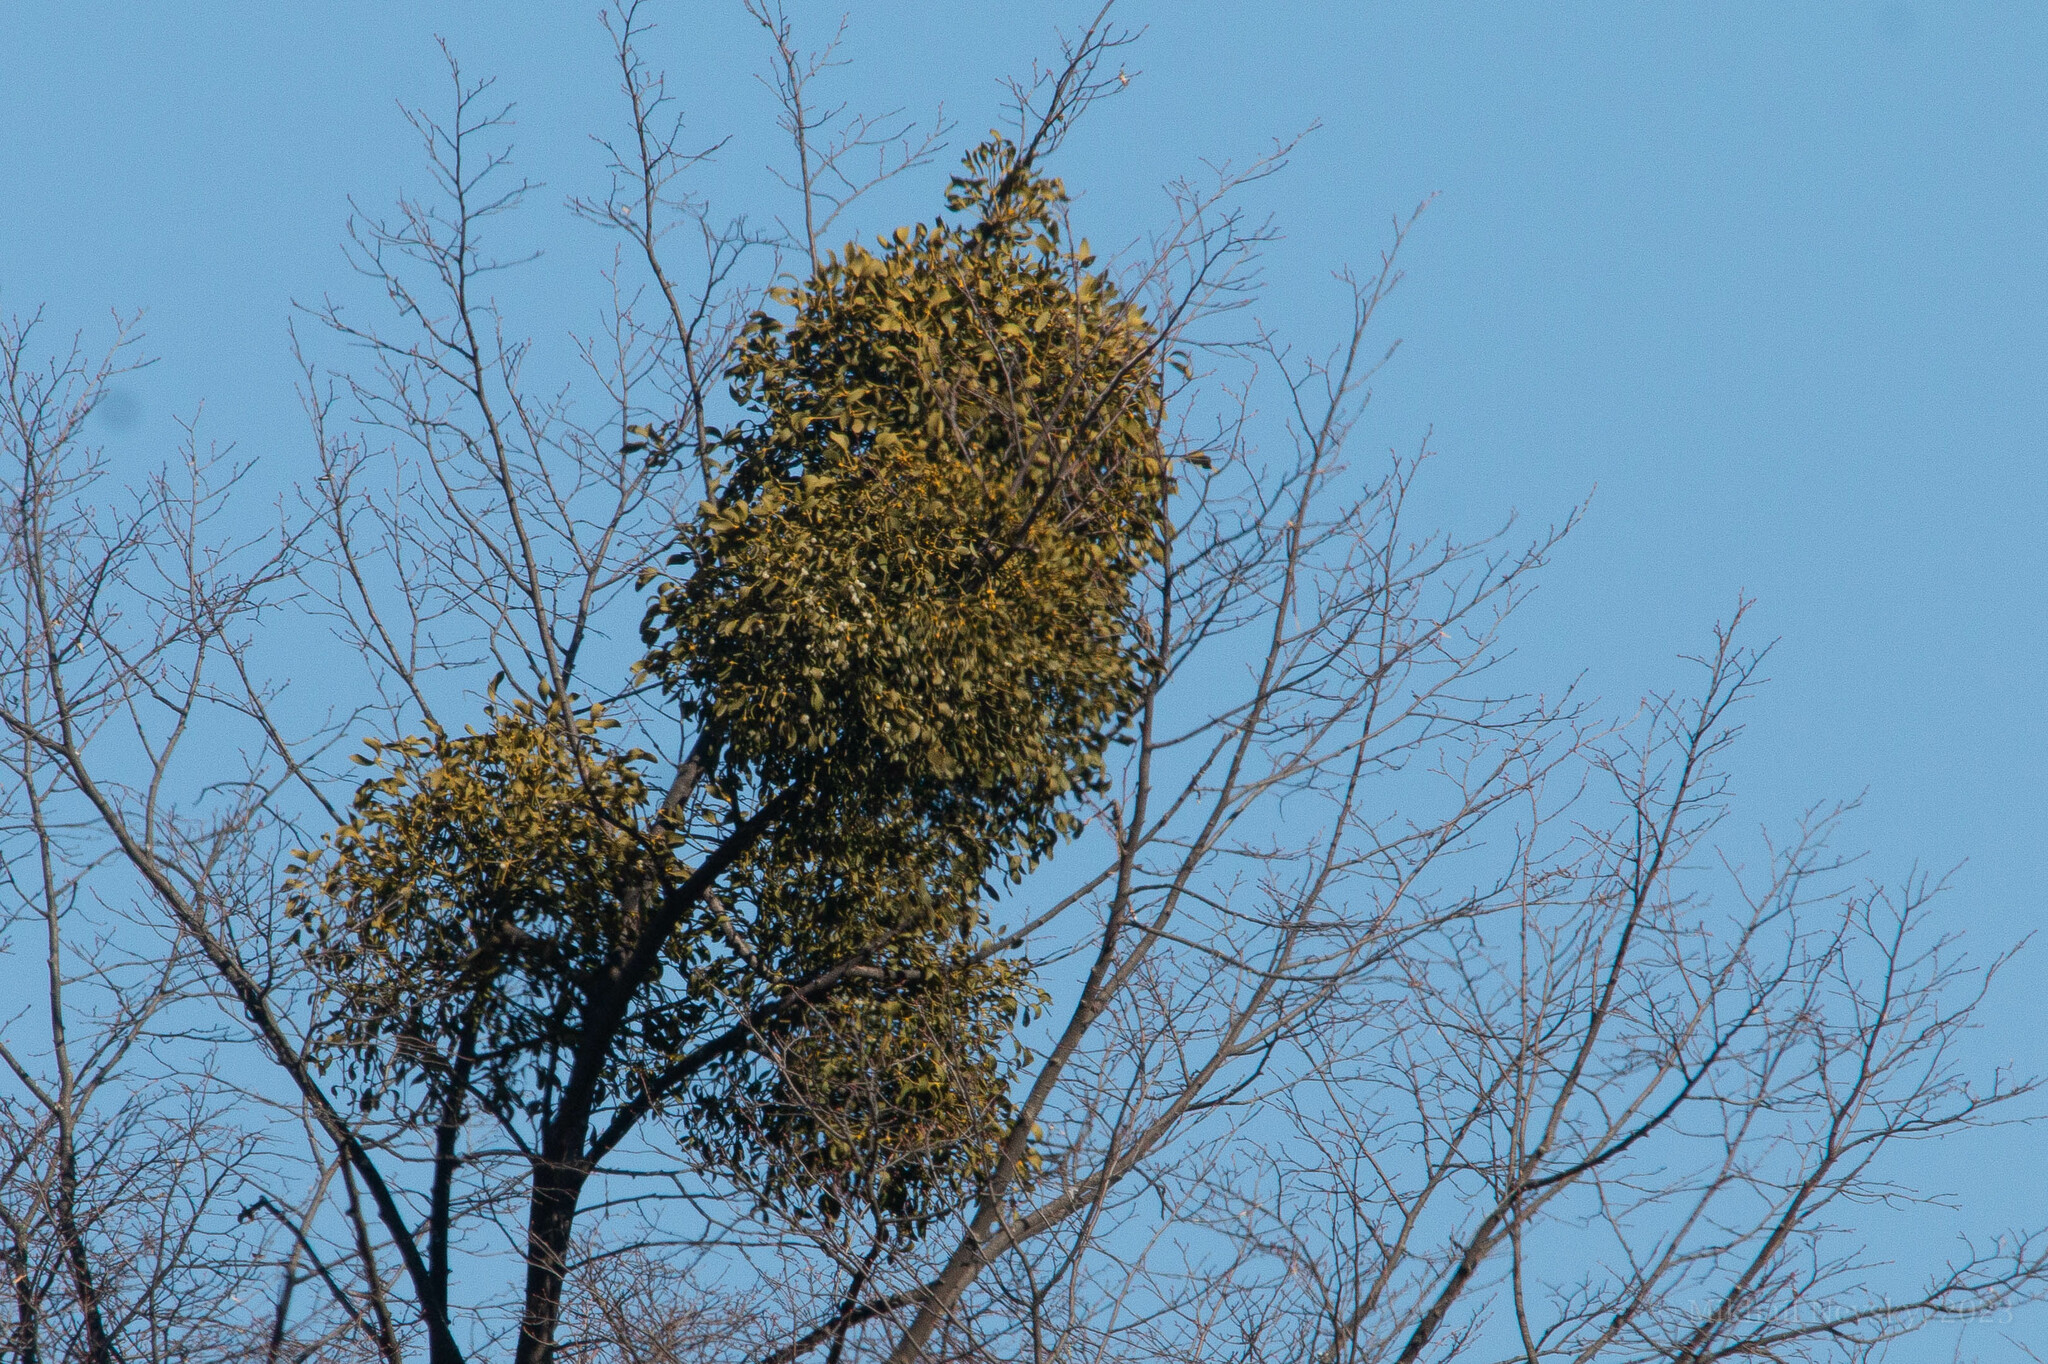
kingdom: Plantae
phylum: Tracheophyta
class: Magnoliopsida
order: Santalales
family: Viscaceae
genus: Viscum
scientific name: Viscum album
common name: Mistletoe
